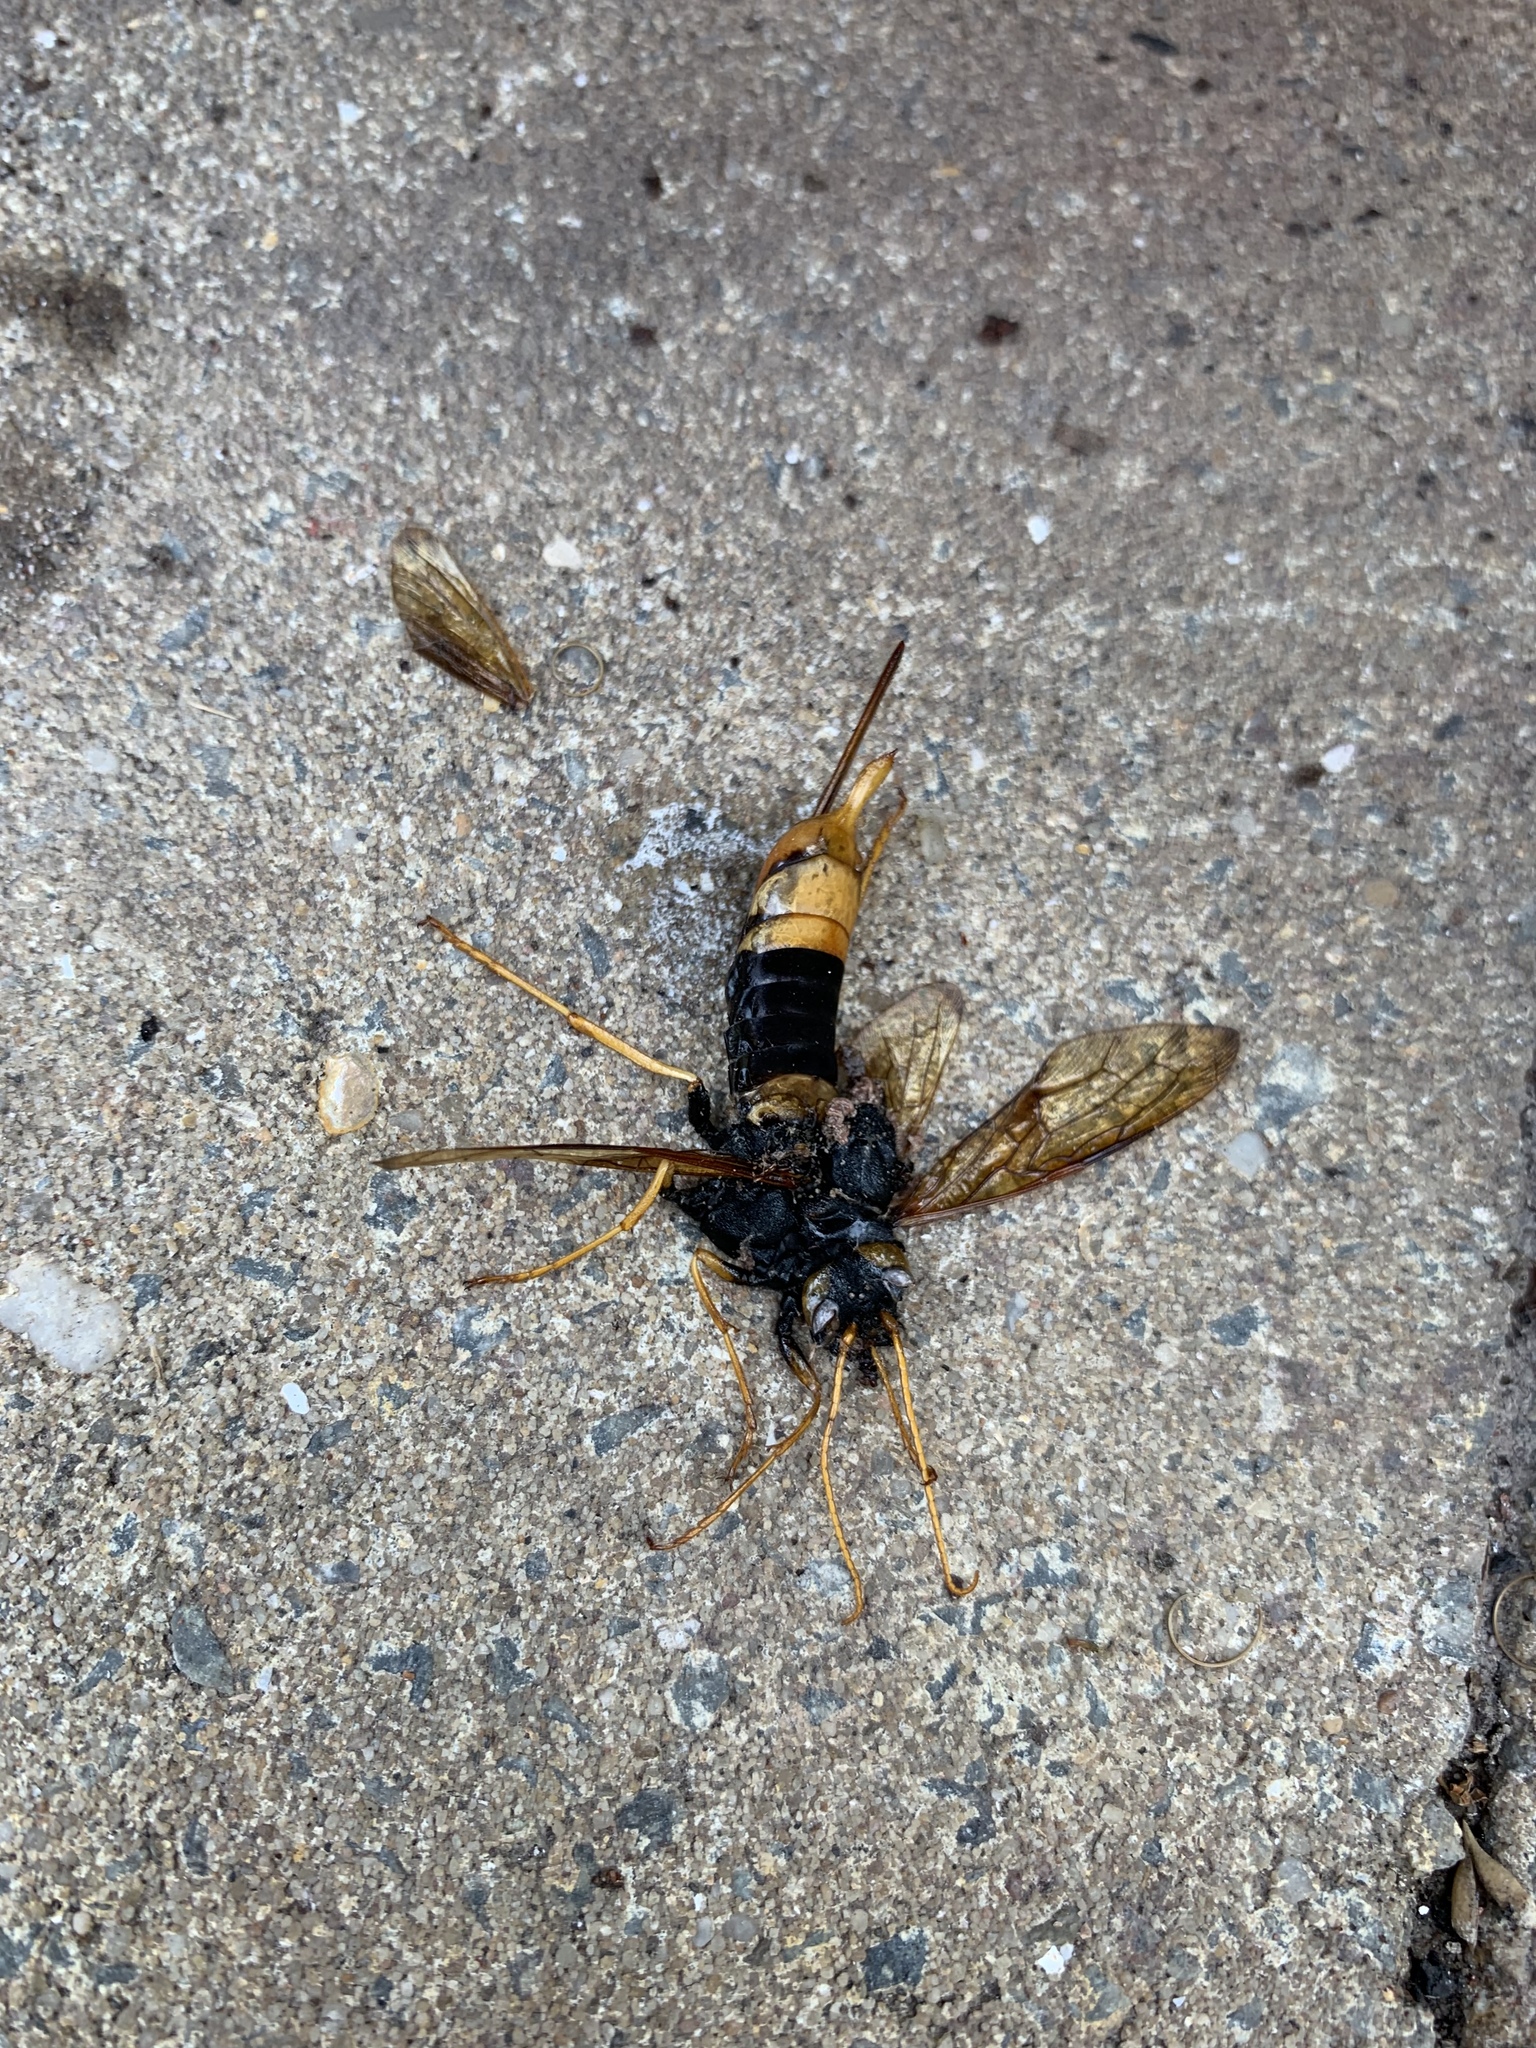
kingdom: Animalia
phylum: Arthropoda
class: Insecta
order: Hymenoptera
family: Siricidae
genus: Urocerus
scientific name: Urocerus gigas
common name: Giant woodwasp
